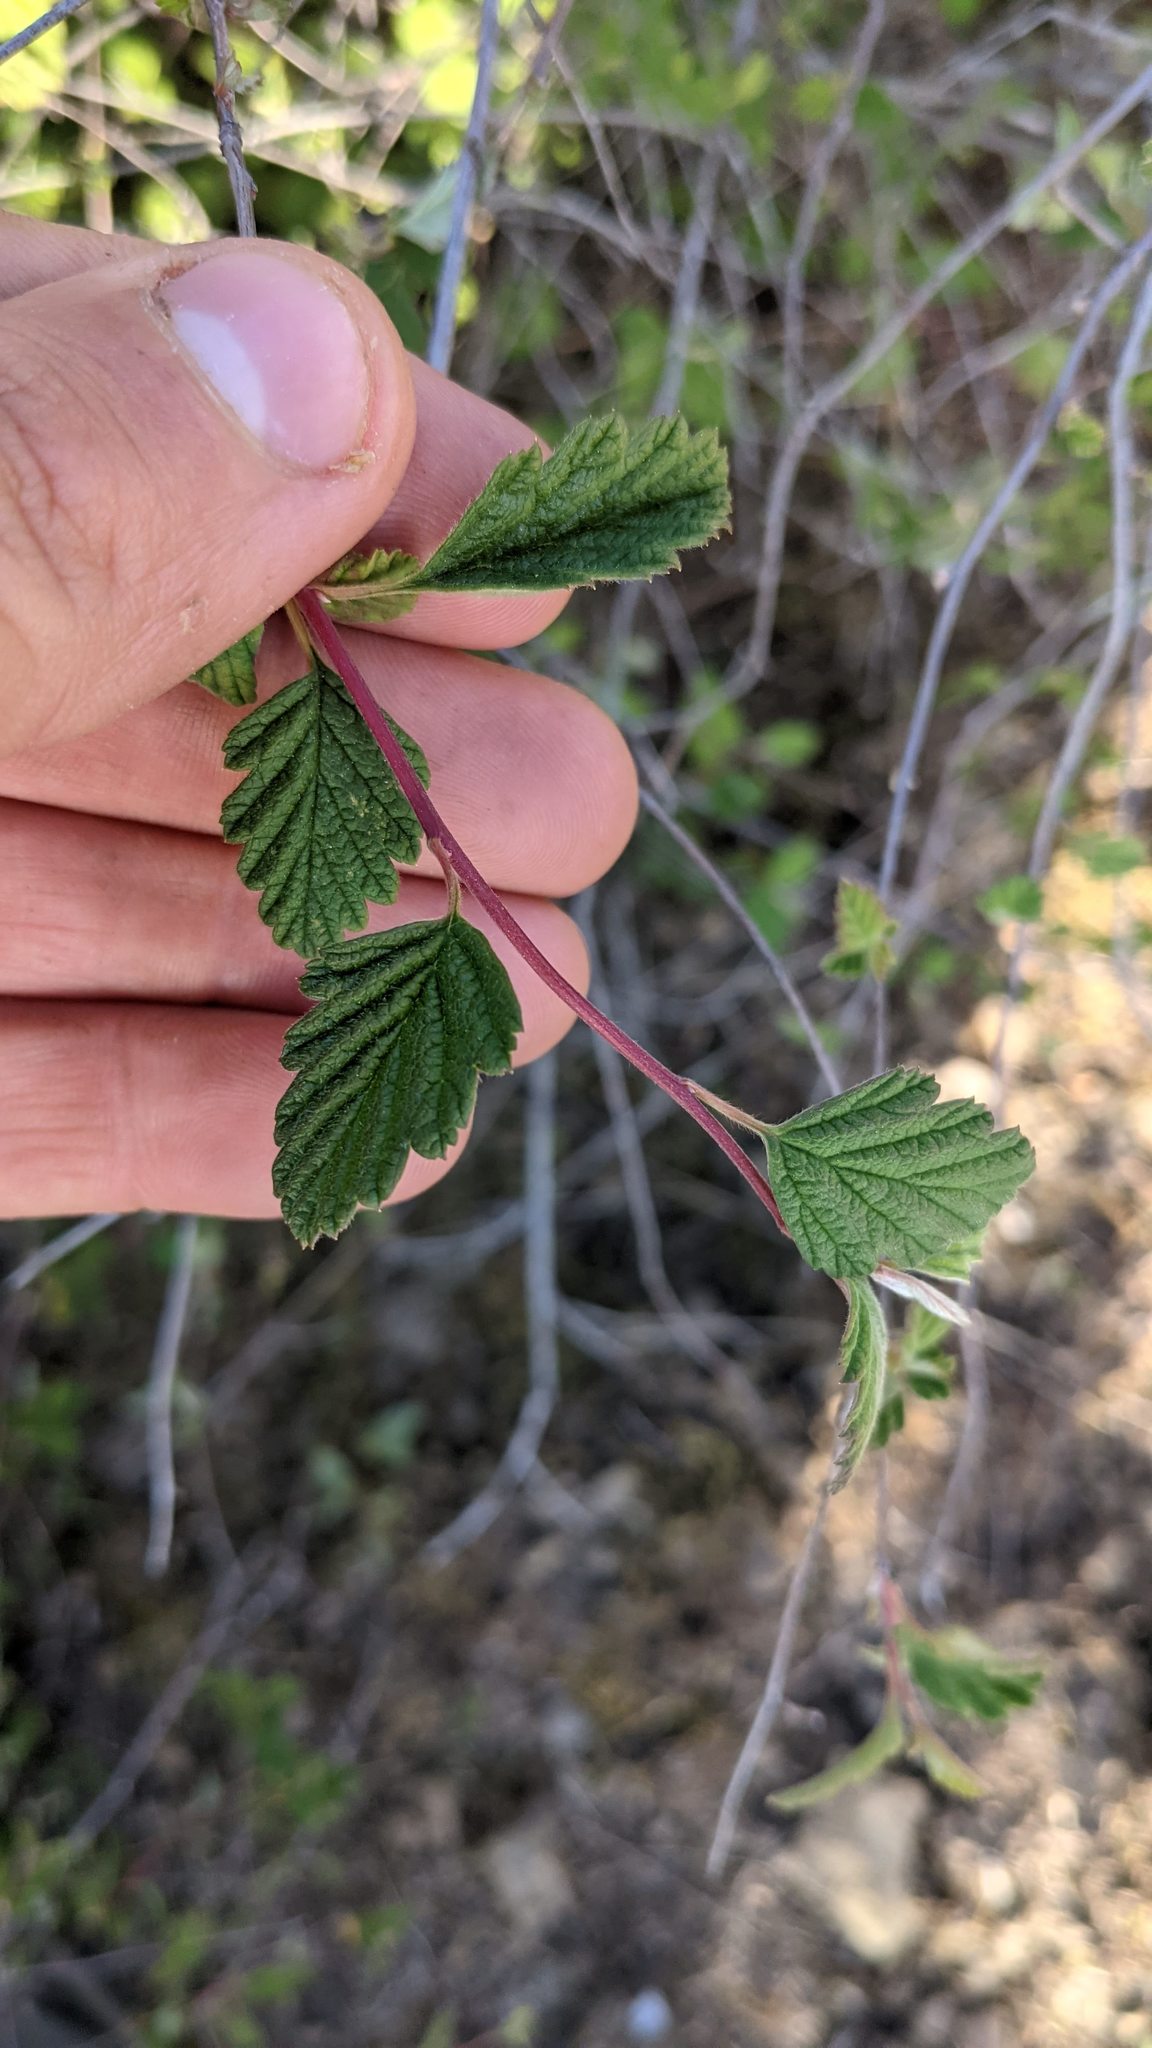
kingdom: Plantae
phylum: Tracheophyta
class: Magnoliopsida
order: Rosales
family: Rosaceae
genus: Holodiscus
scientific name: Holodiscus discolor
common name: Oceanspray
